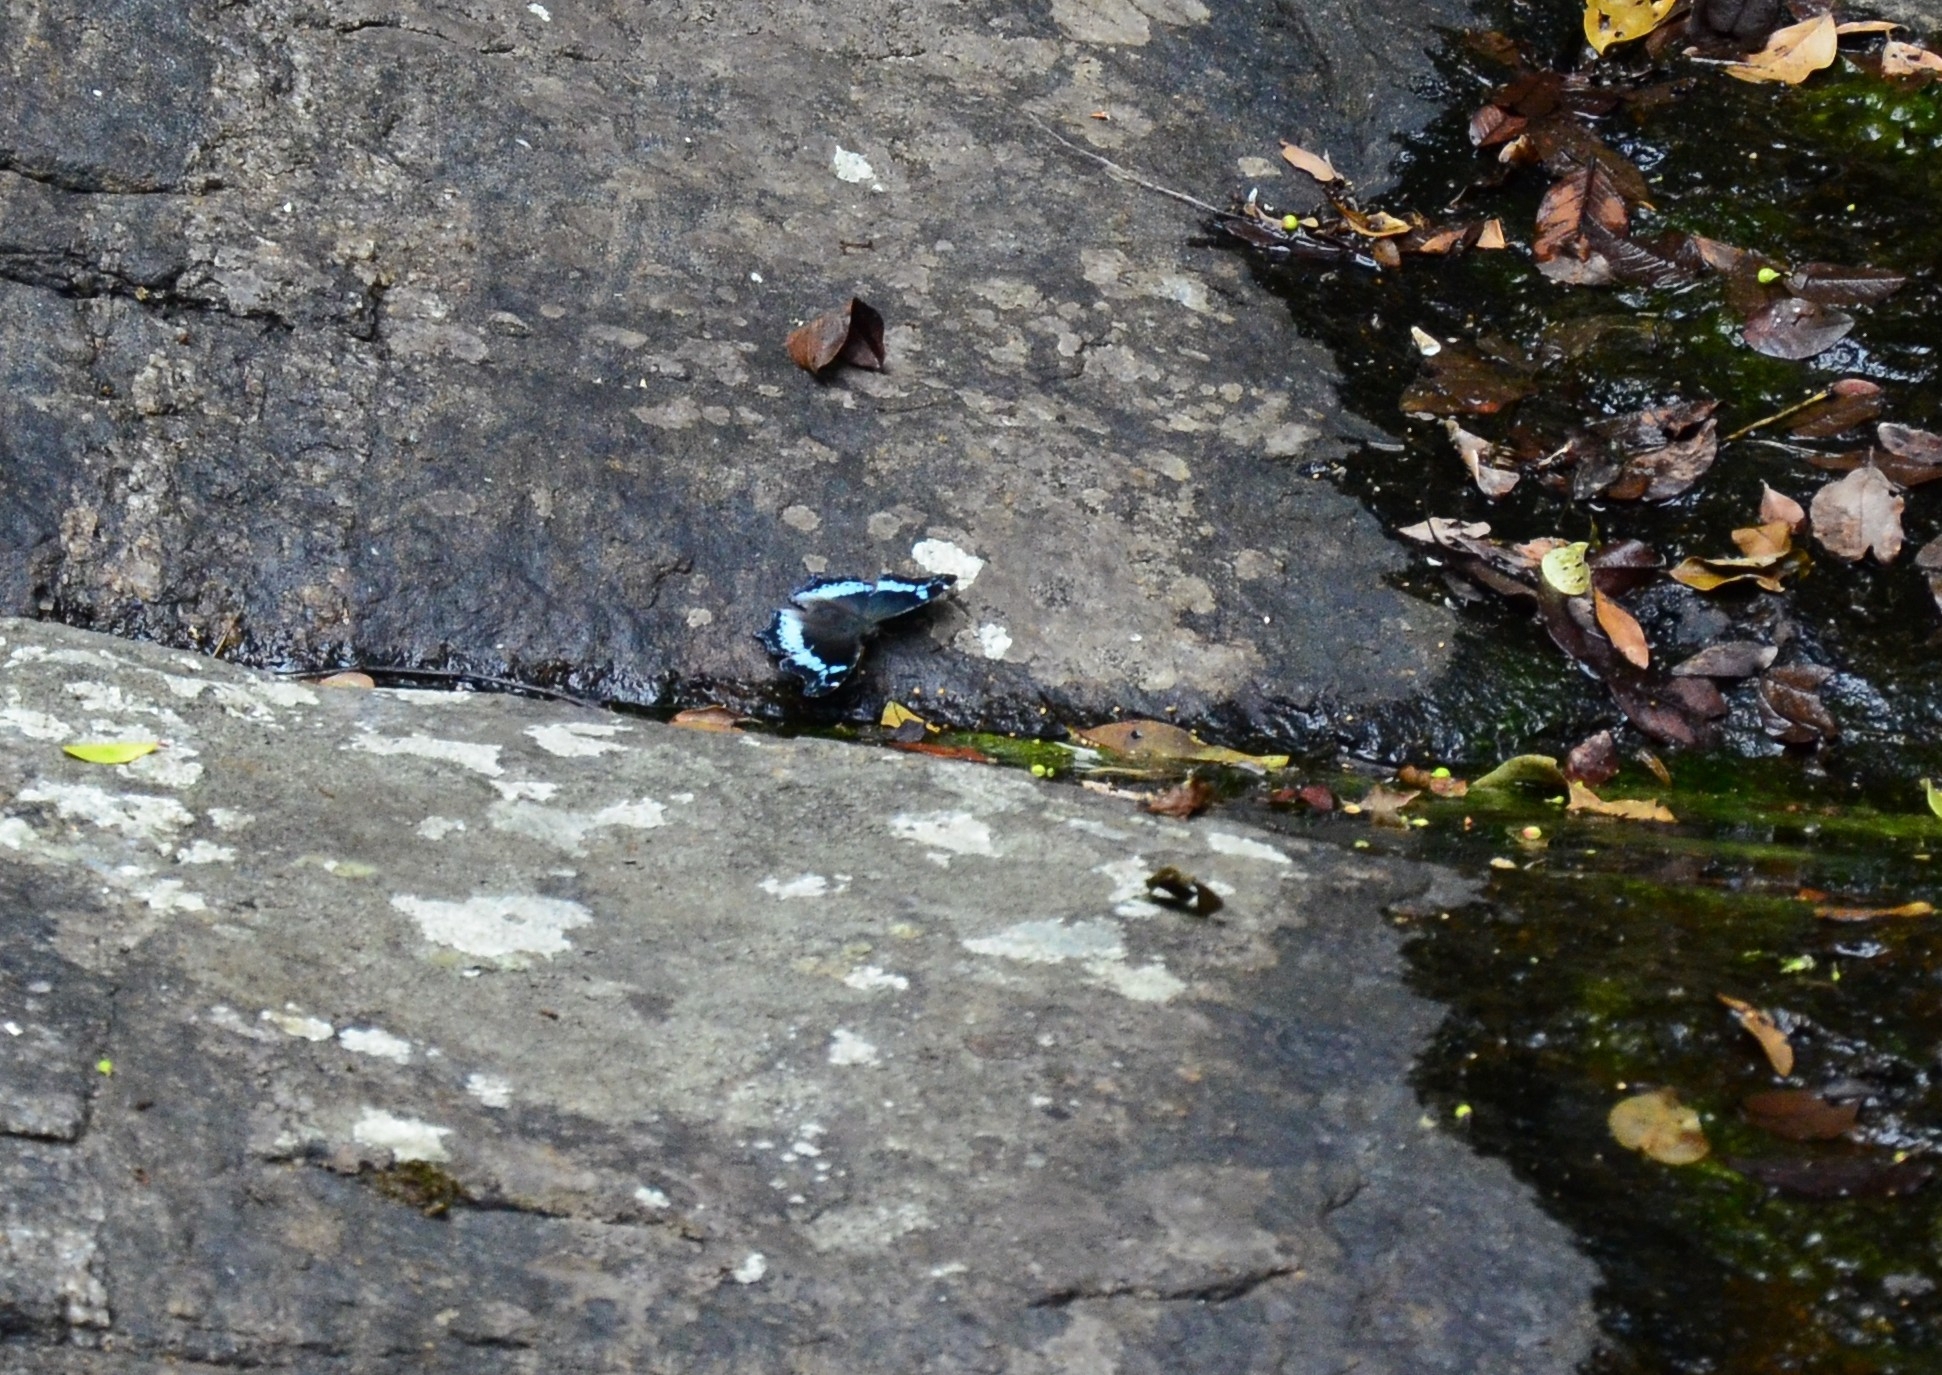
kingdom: Animalia
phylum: Arthropoda
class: Insecta
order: Lepidoptera
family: Nymphalidae
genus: Vanessa
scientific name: Vanessa Kaniska canace
